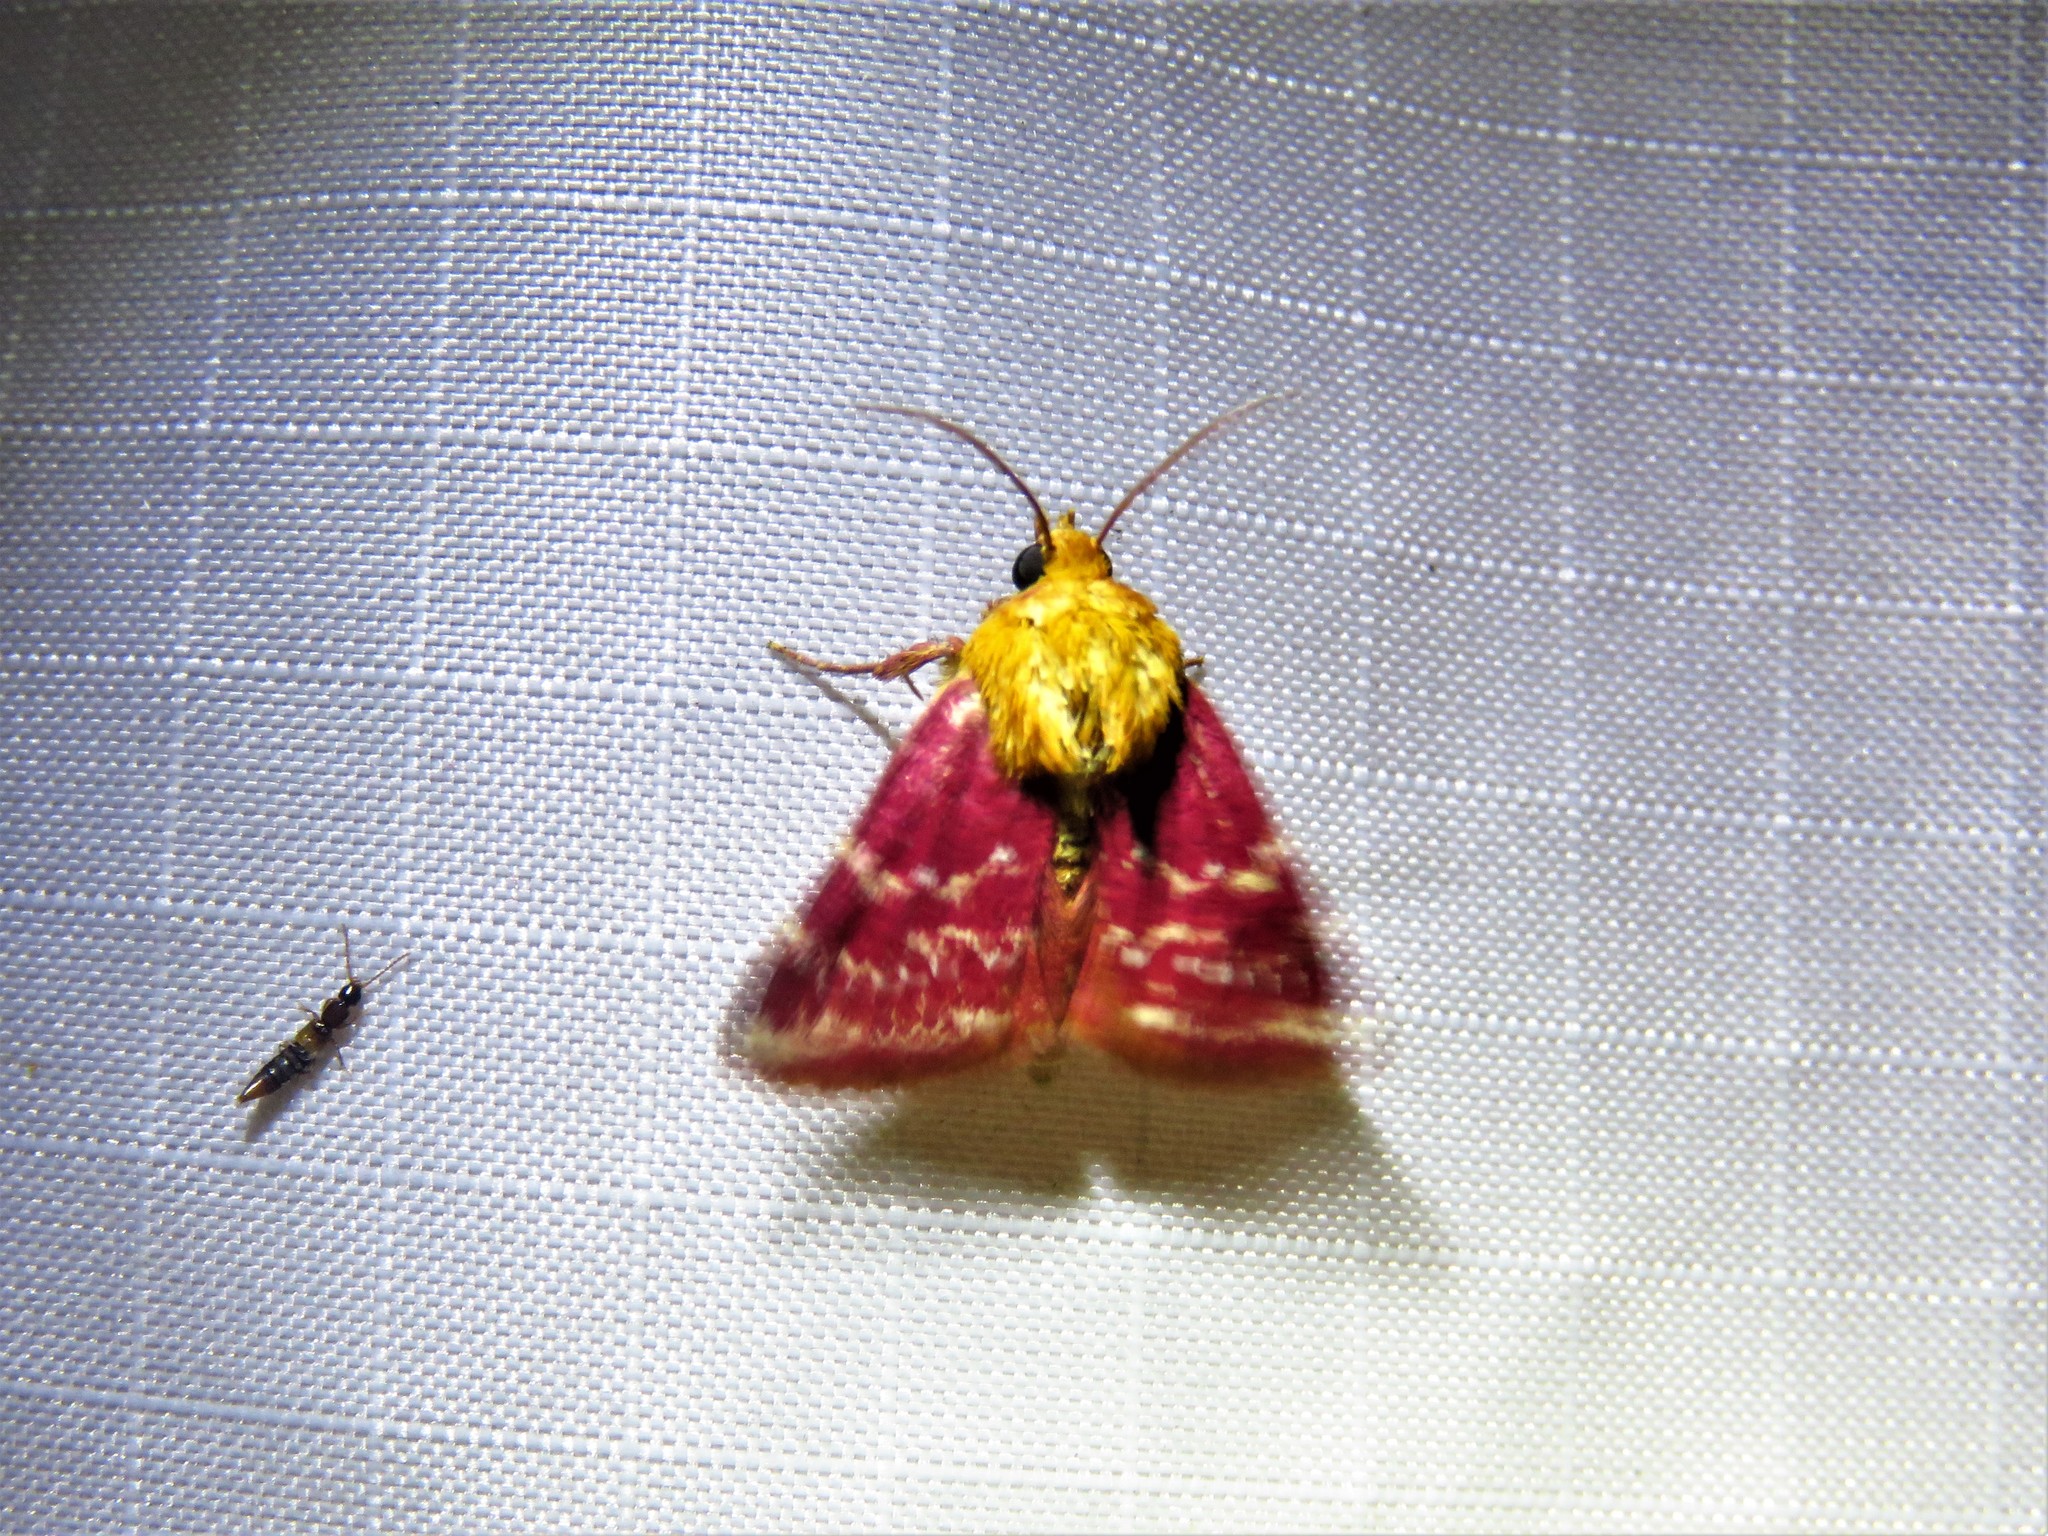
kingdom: Animalia
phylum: Arthropoda
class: Insecta
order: Lepidoptera
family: Noctuidae
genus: Schinia
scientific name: Schinia volupia
